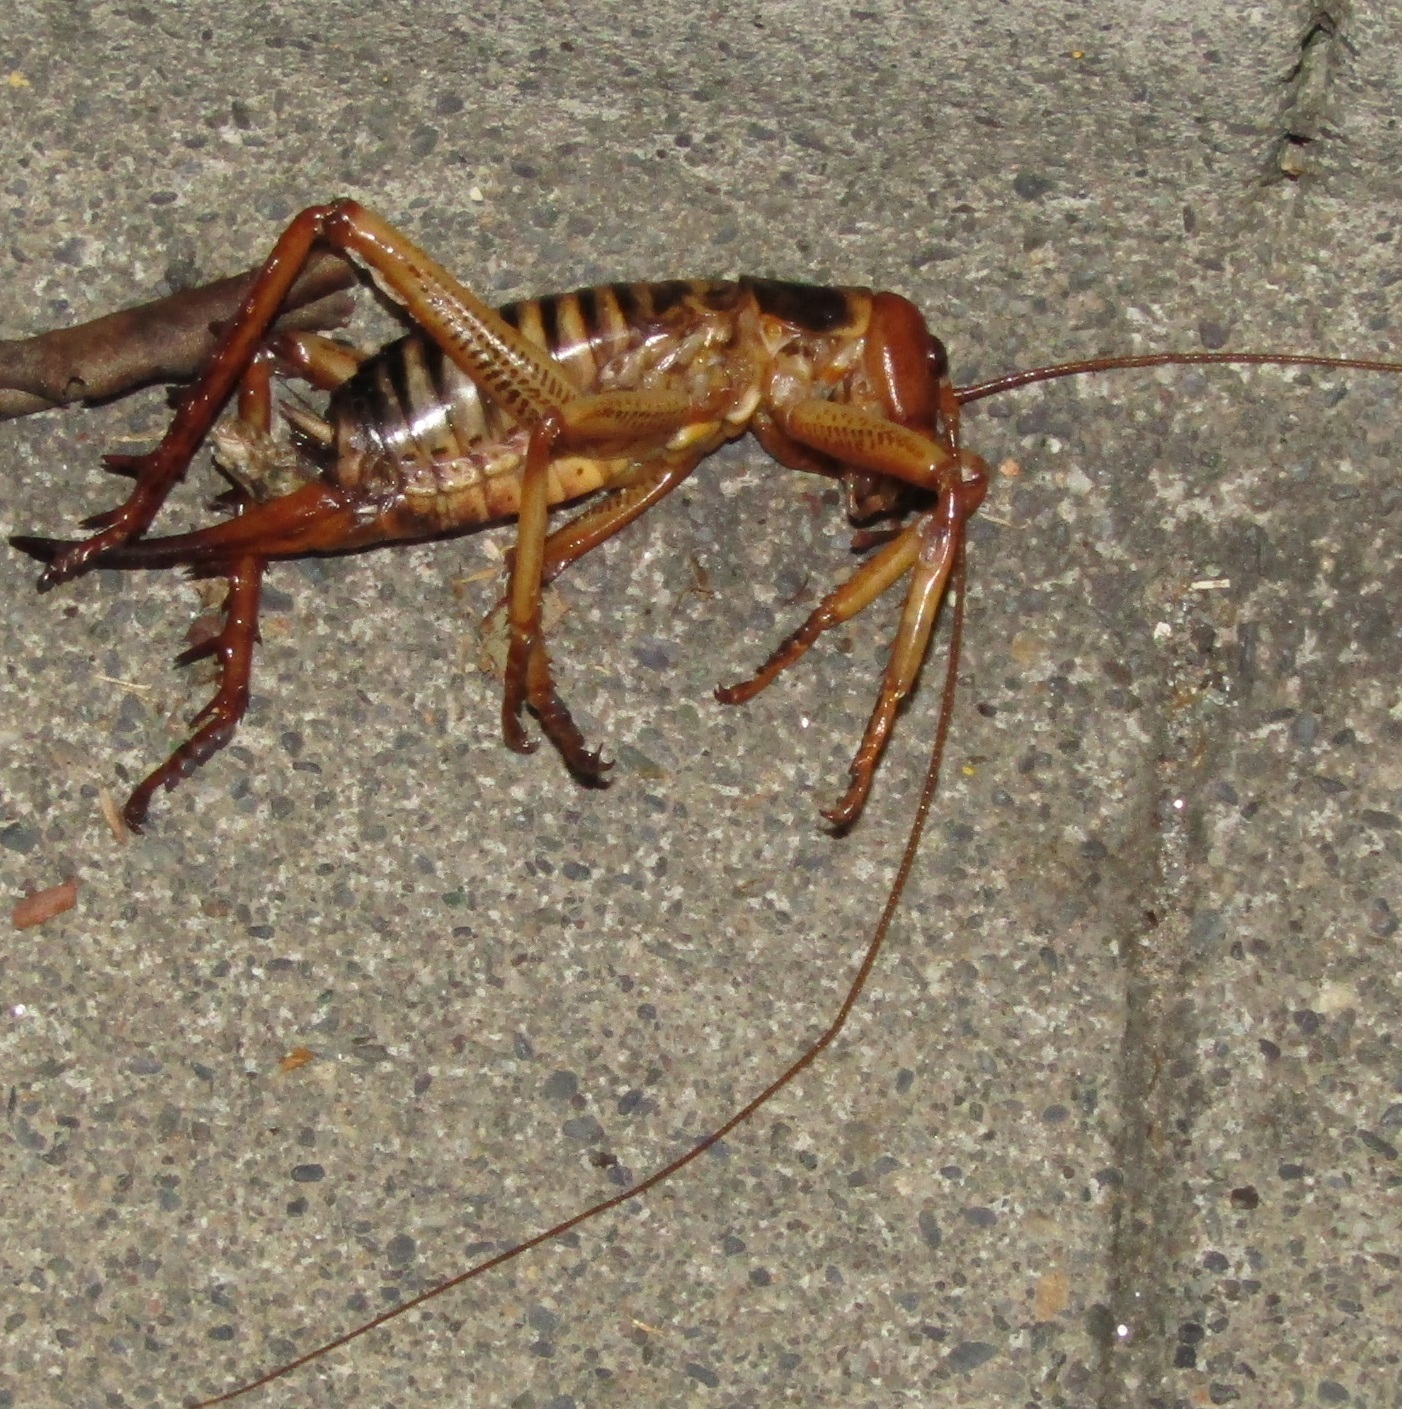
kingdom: Animalia
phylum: Arthropoda
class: Insecta
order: Orthoptera
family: Anostostomatidae
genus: Hemideina
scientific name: Hemideina crassidens
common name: Wellington tree weta
